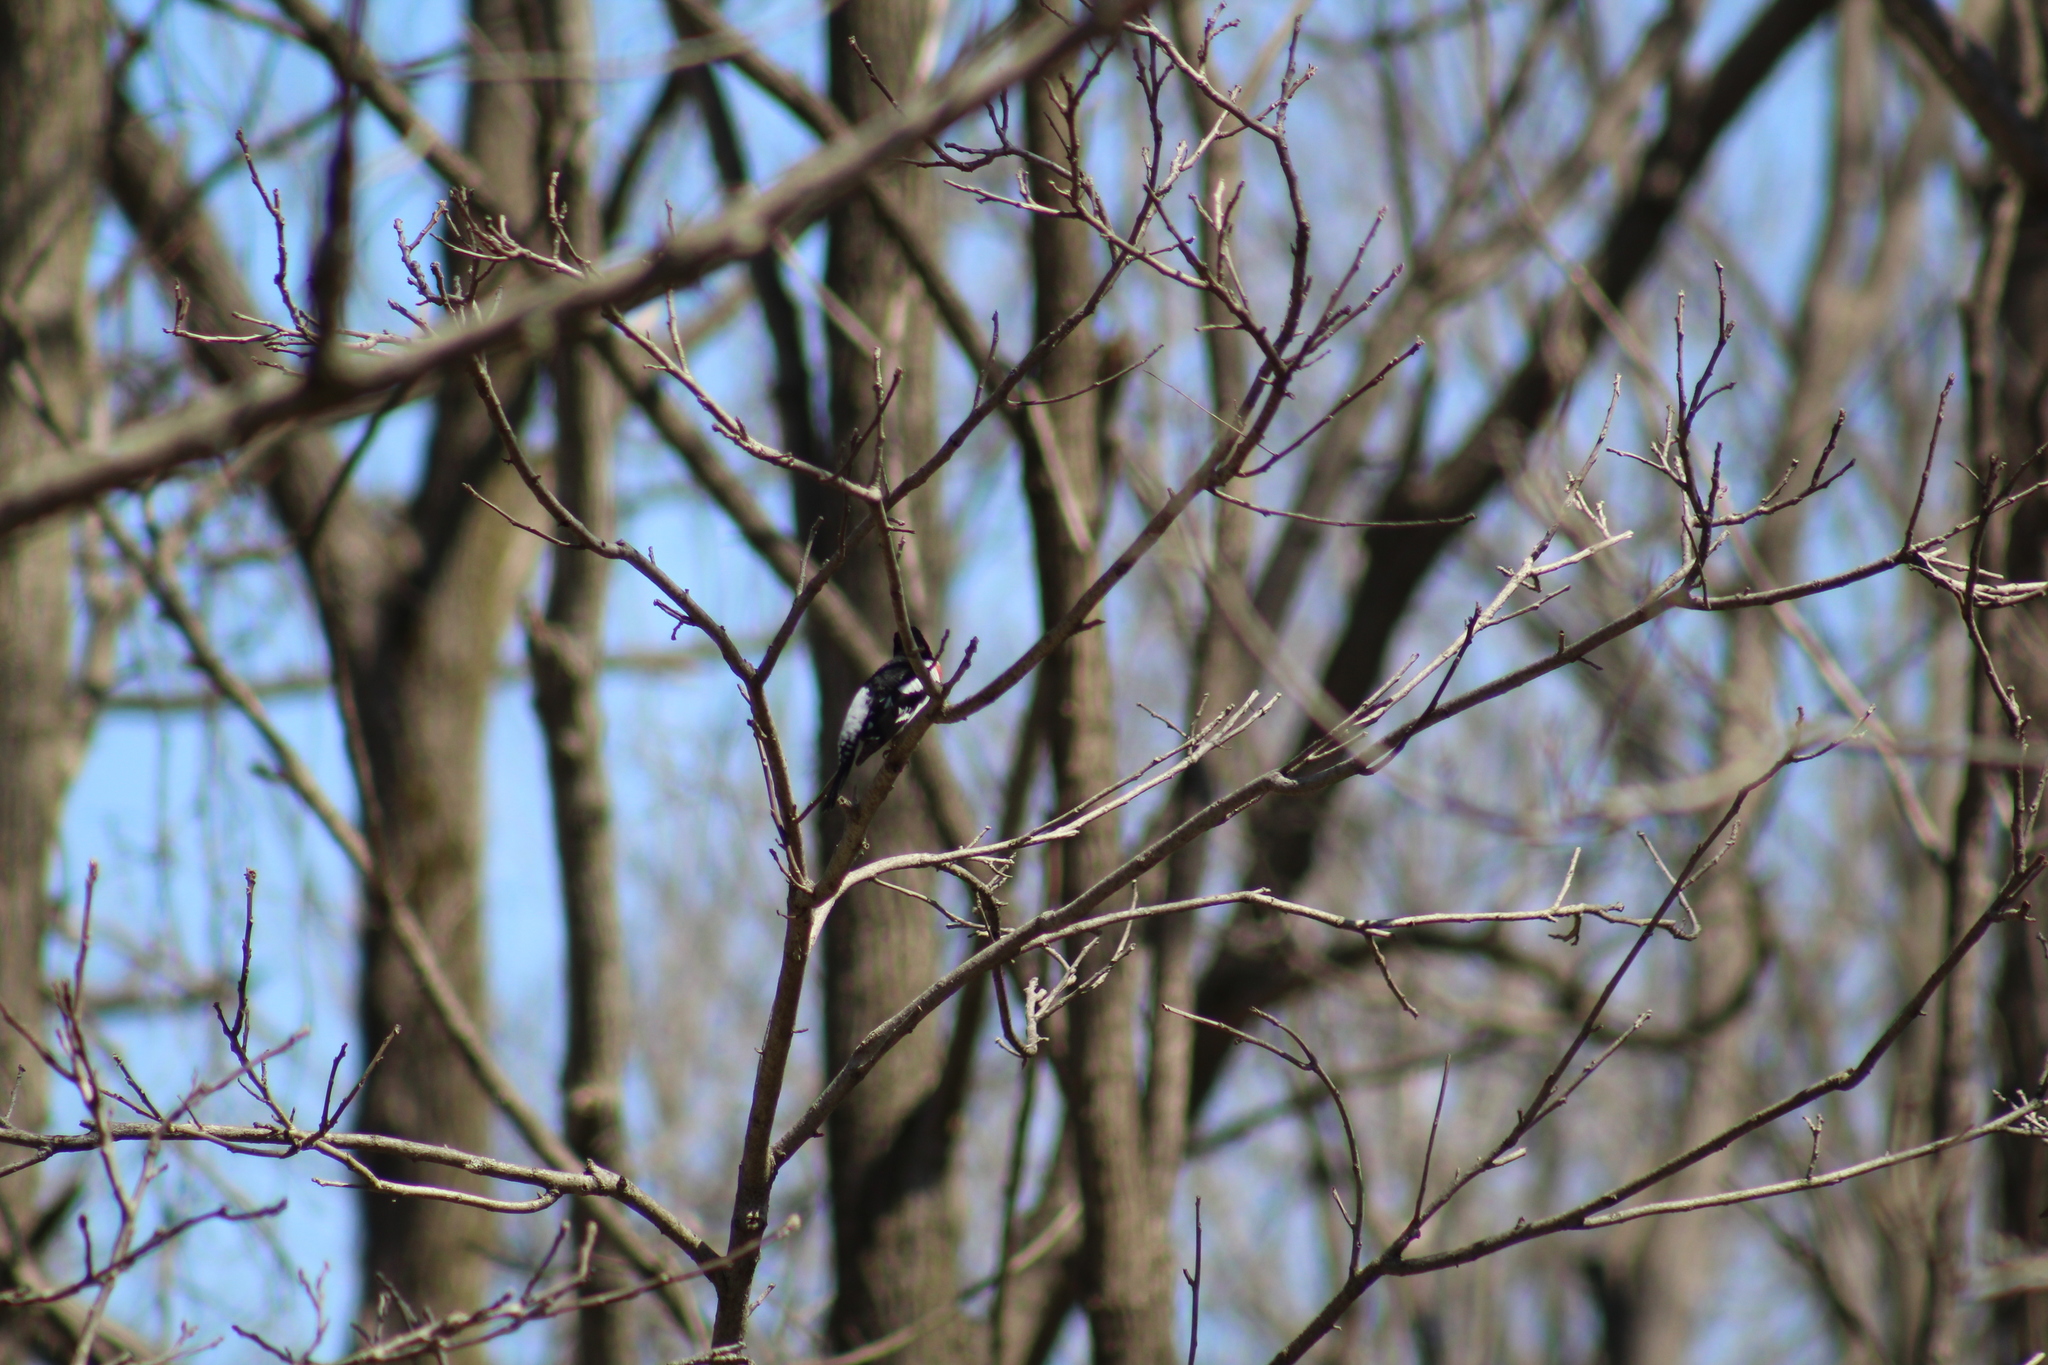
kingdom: Animalia
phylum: Chordata
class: Aves
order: Passeriformes
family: Cardinalidae
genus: Pheucticus
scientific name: Pheucticus ludovicianus
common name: Rose-breasted grosbeak
